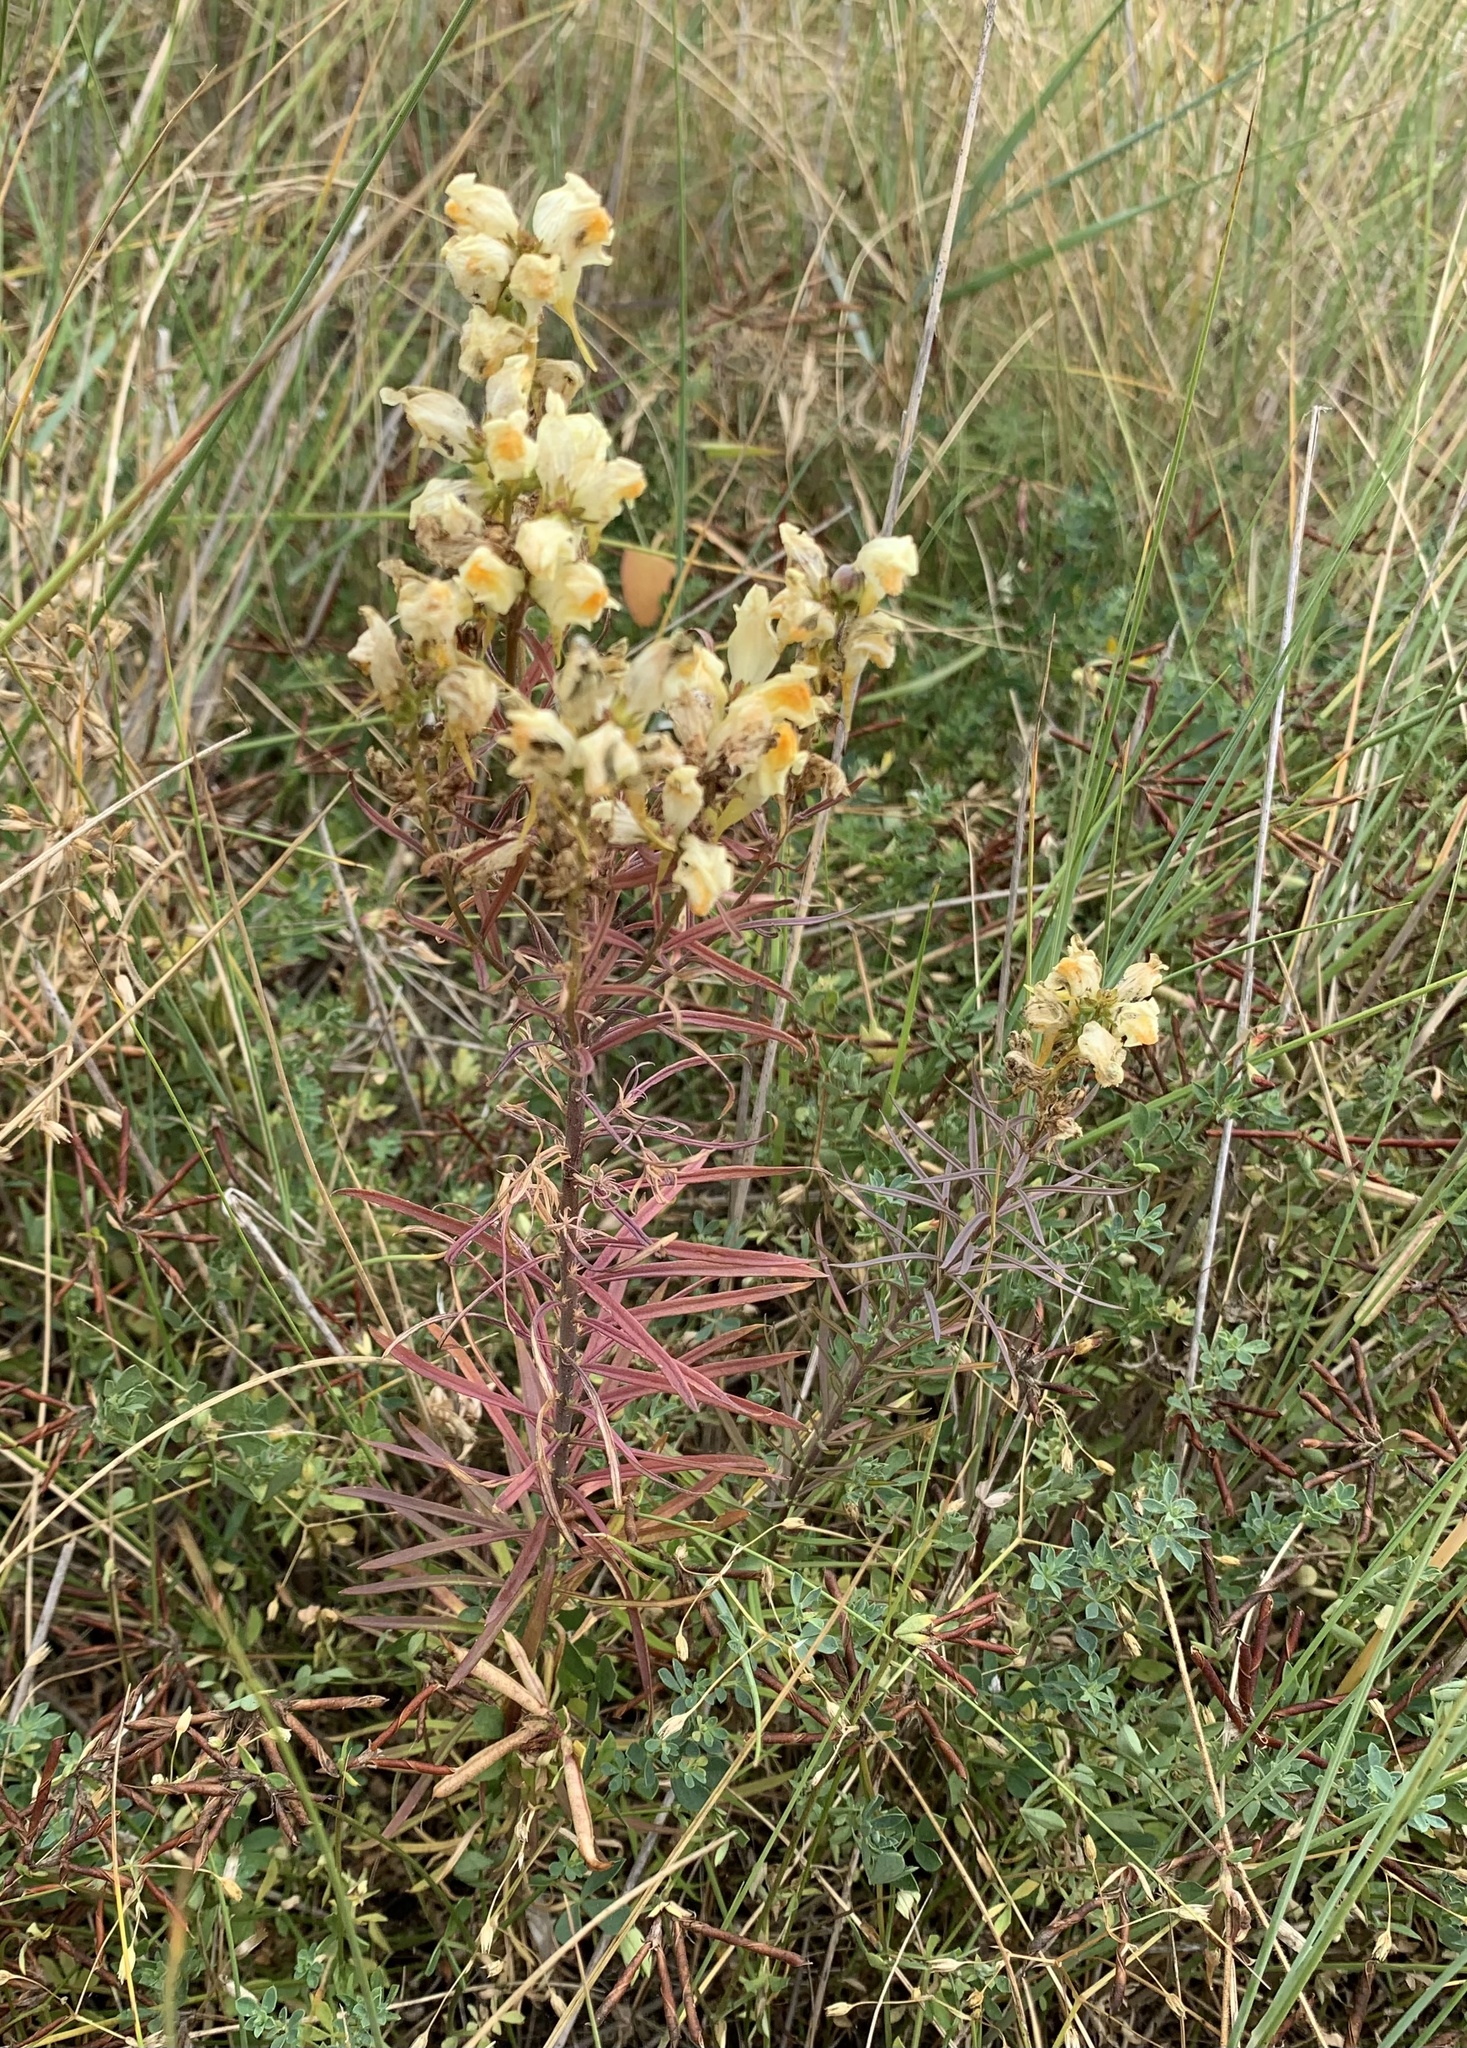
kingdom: Plantae
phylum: Tracheophyta
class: Magnoliopsida
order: Lamiales
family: Plantaginaceae
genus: Linaria
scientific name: Linaria vulgaris
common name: Butter and eggs
